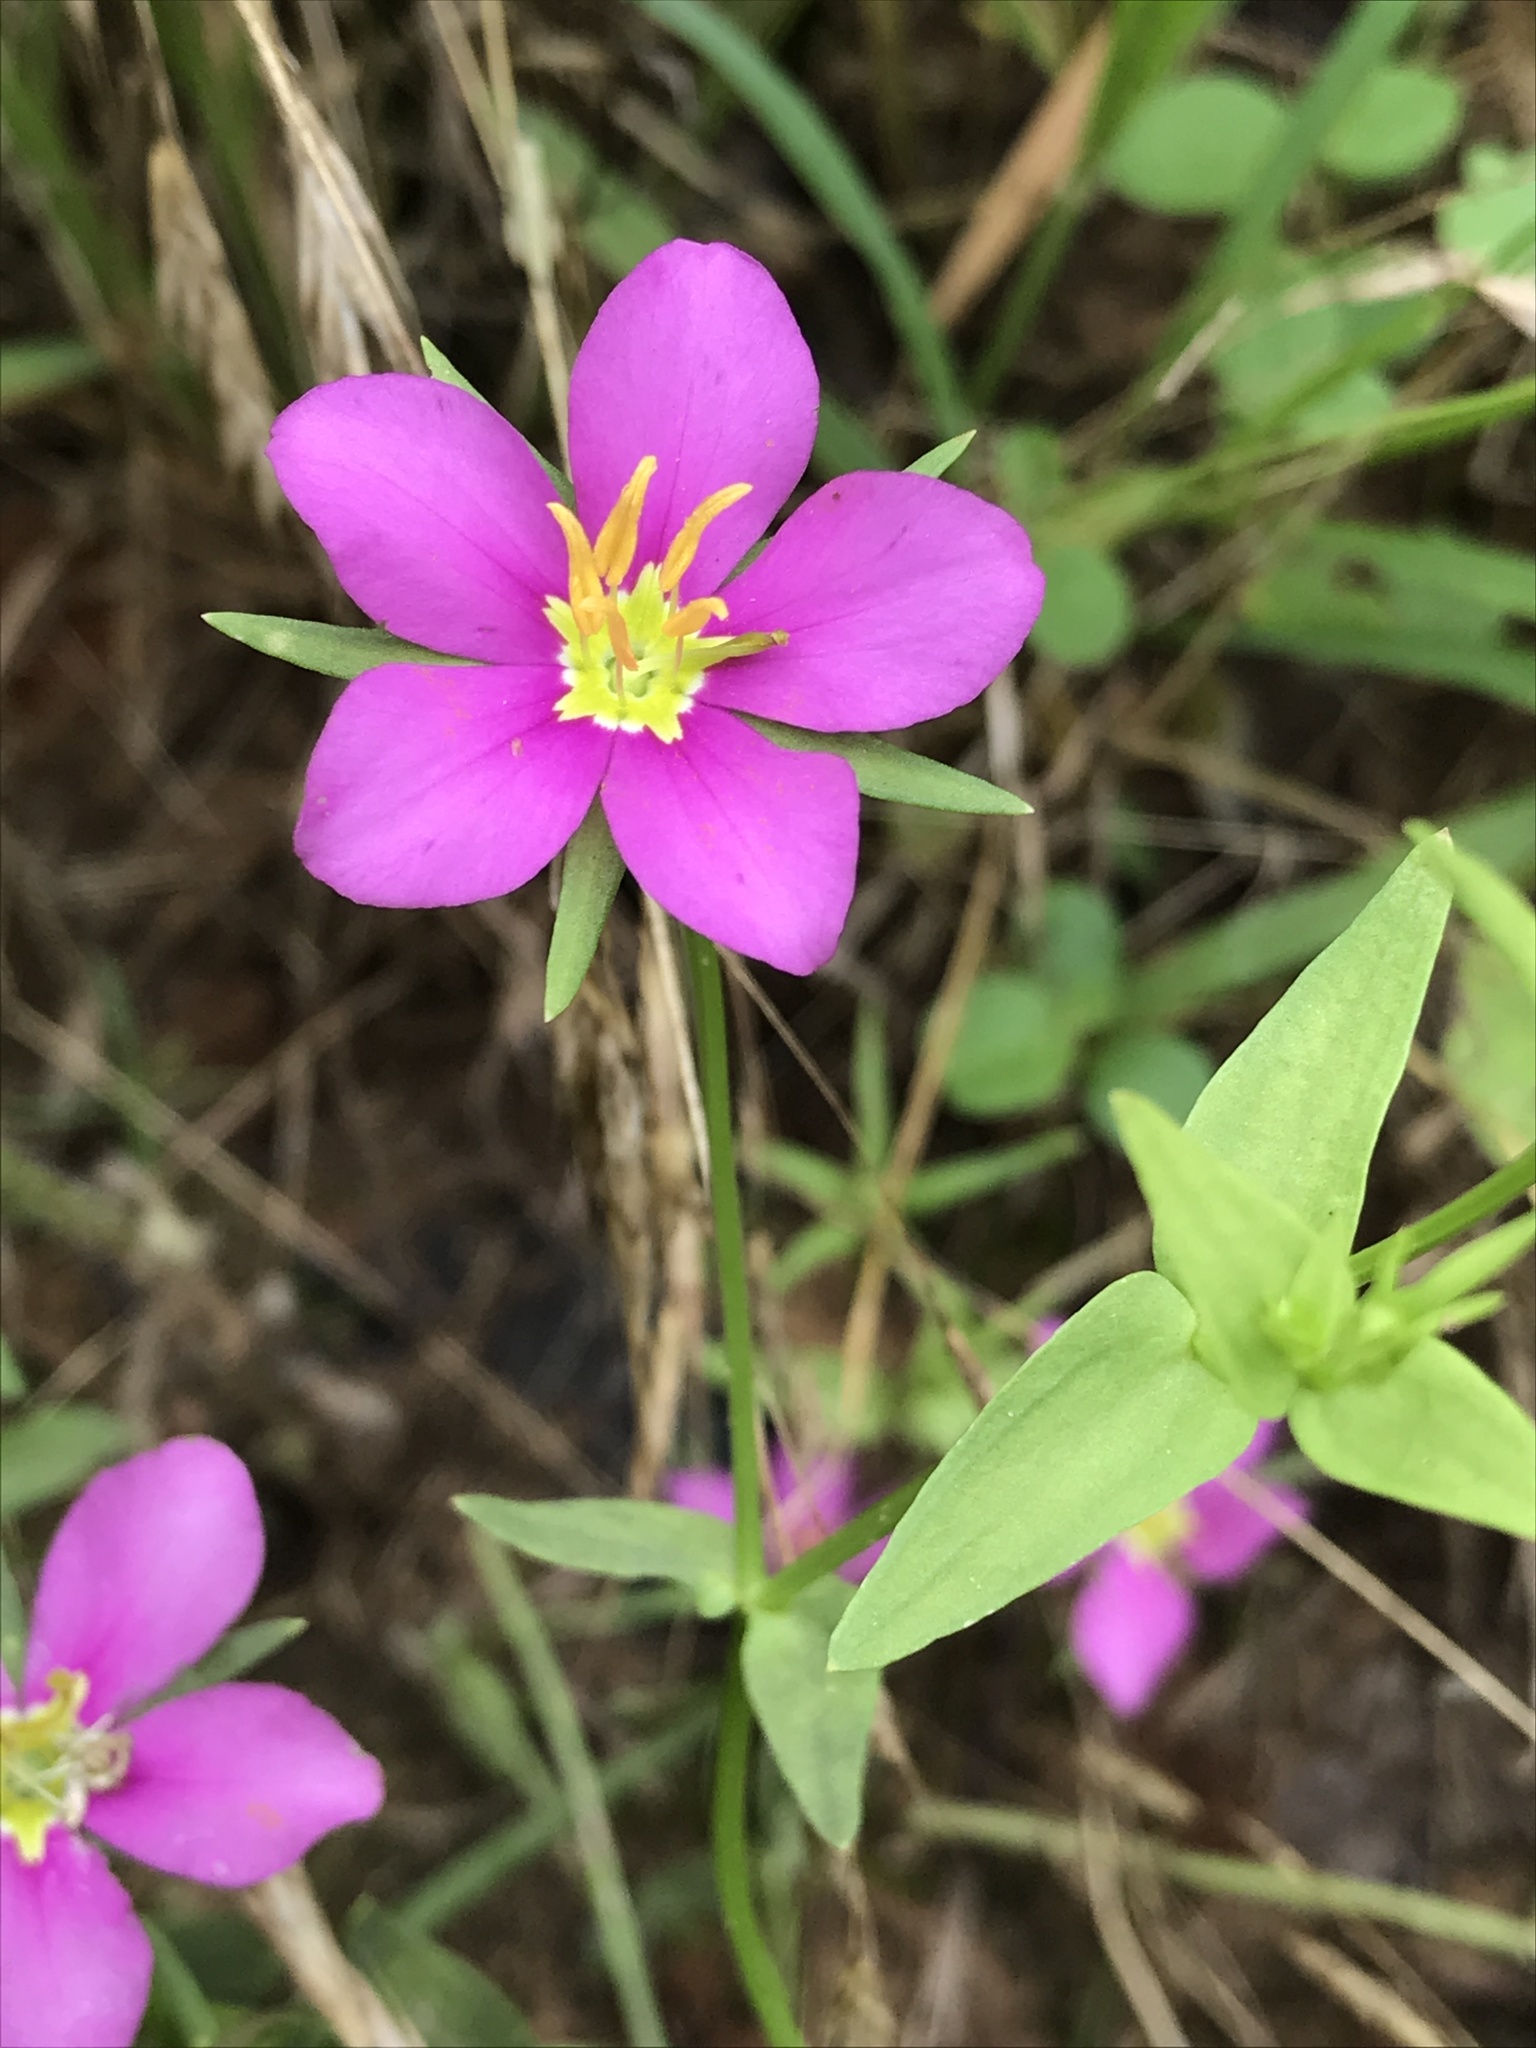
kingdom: Plantae
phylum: Tracheophyta
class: Magnoliopsida
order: Gentianales
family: Gentianaceae
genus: Sabatia
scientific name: Sabatia campestris
